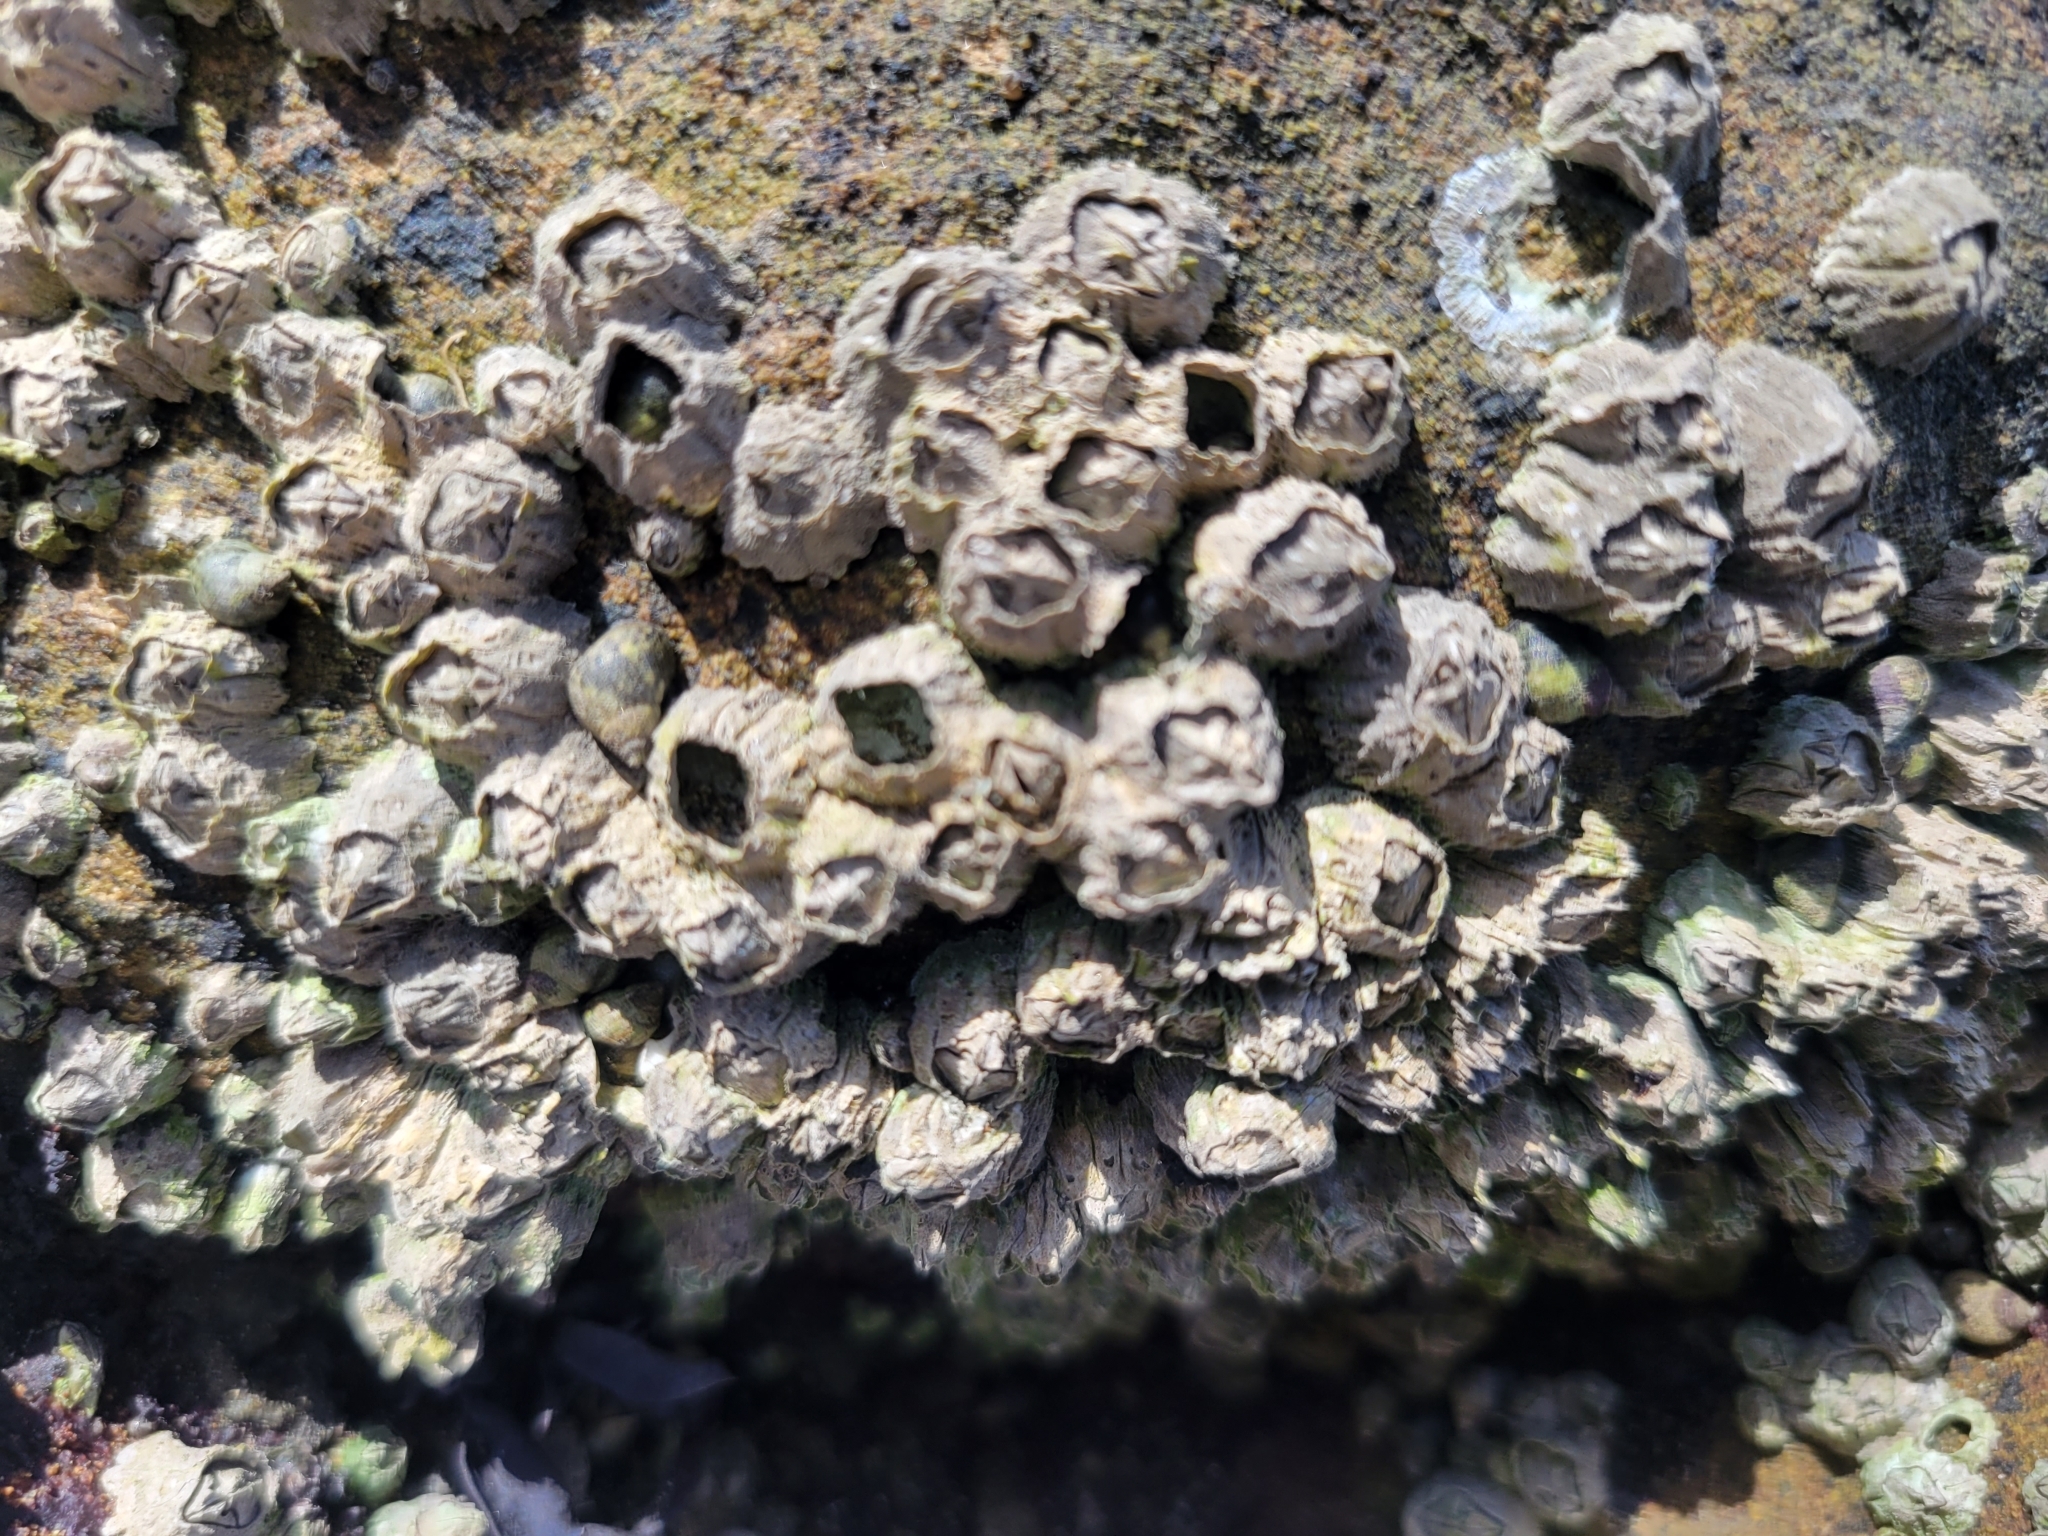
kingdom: Animalia
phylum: Arthropoda
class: Maxillopoda
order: Sessilia
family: Balanidae
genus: Balanus
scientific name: Balanus glandula
